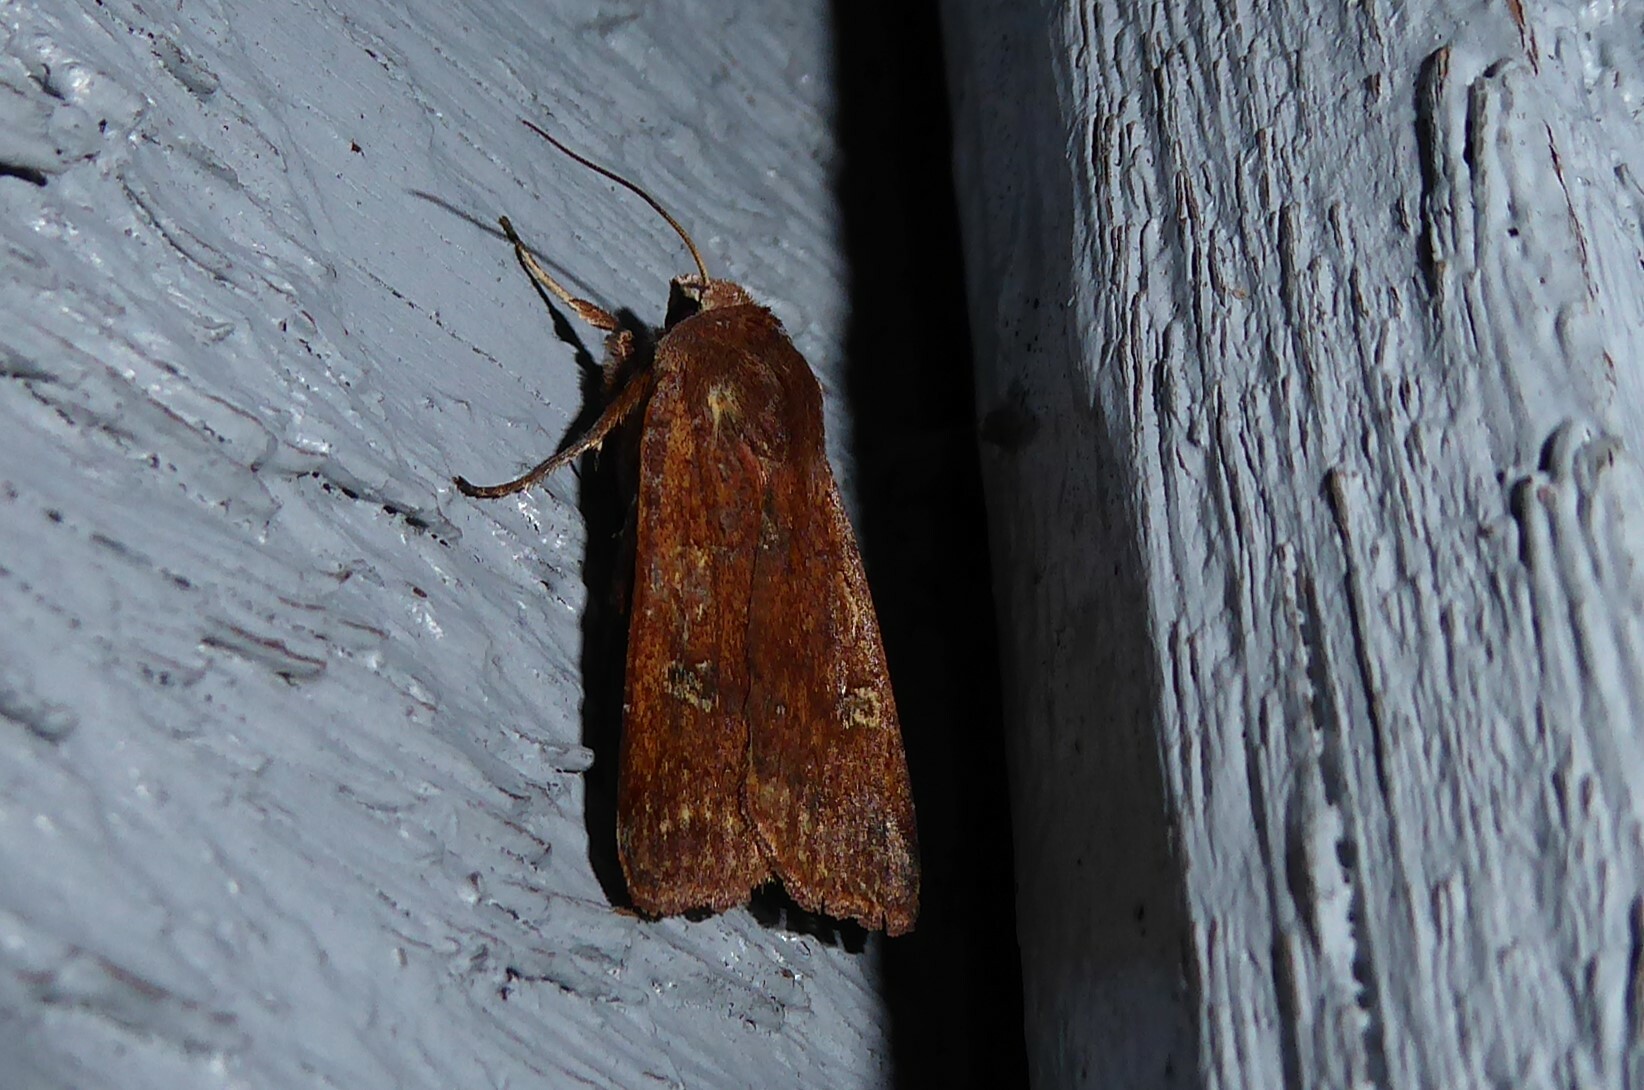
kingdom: Animalia
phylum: Arthropoda
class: Insecta
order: Lepidoptera
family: Noctuidae
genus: Diarsia
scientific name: Diarsia intermixta
